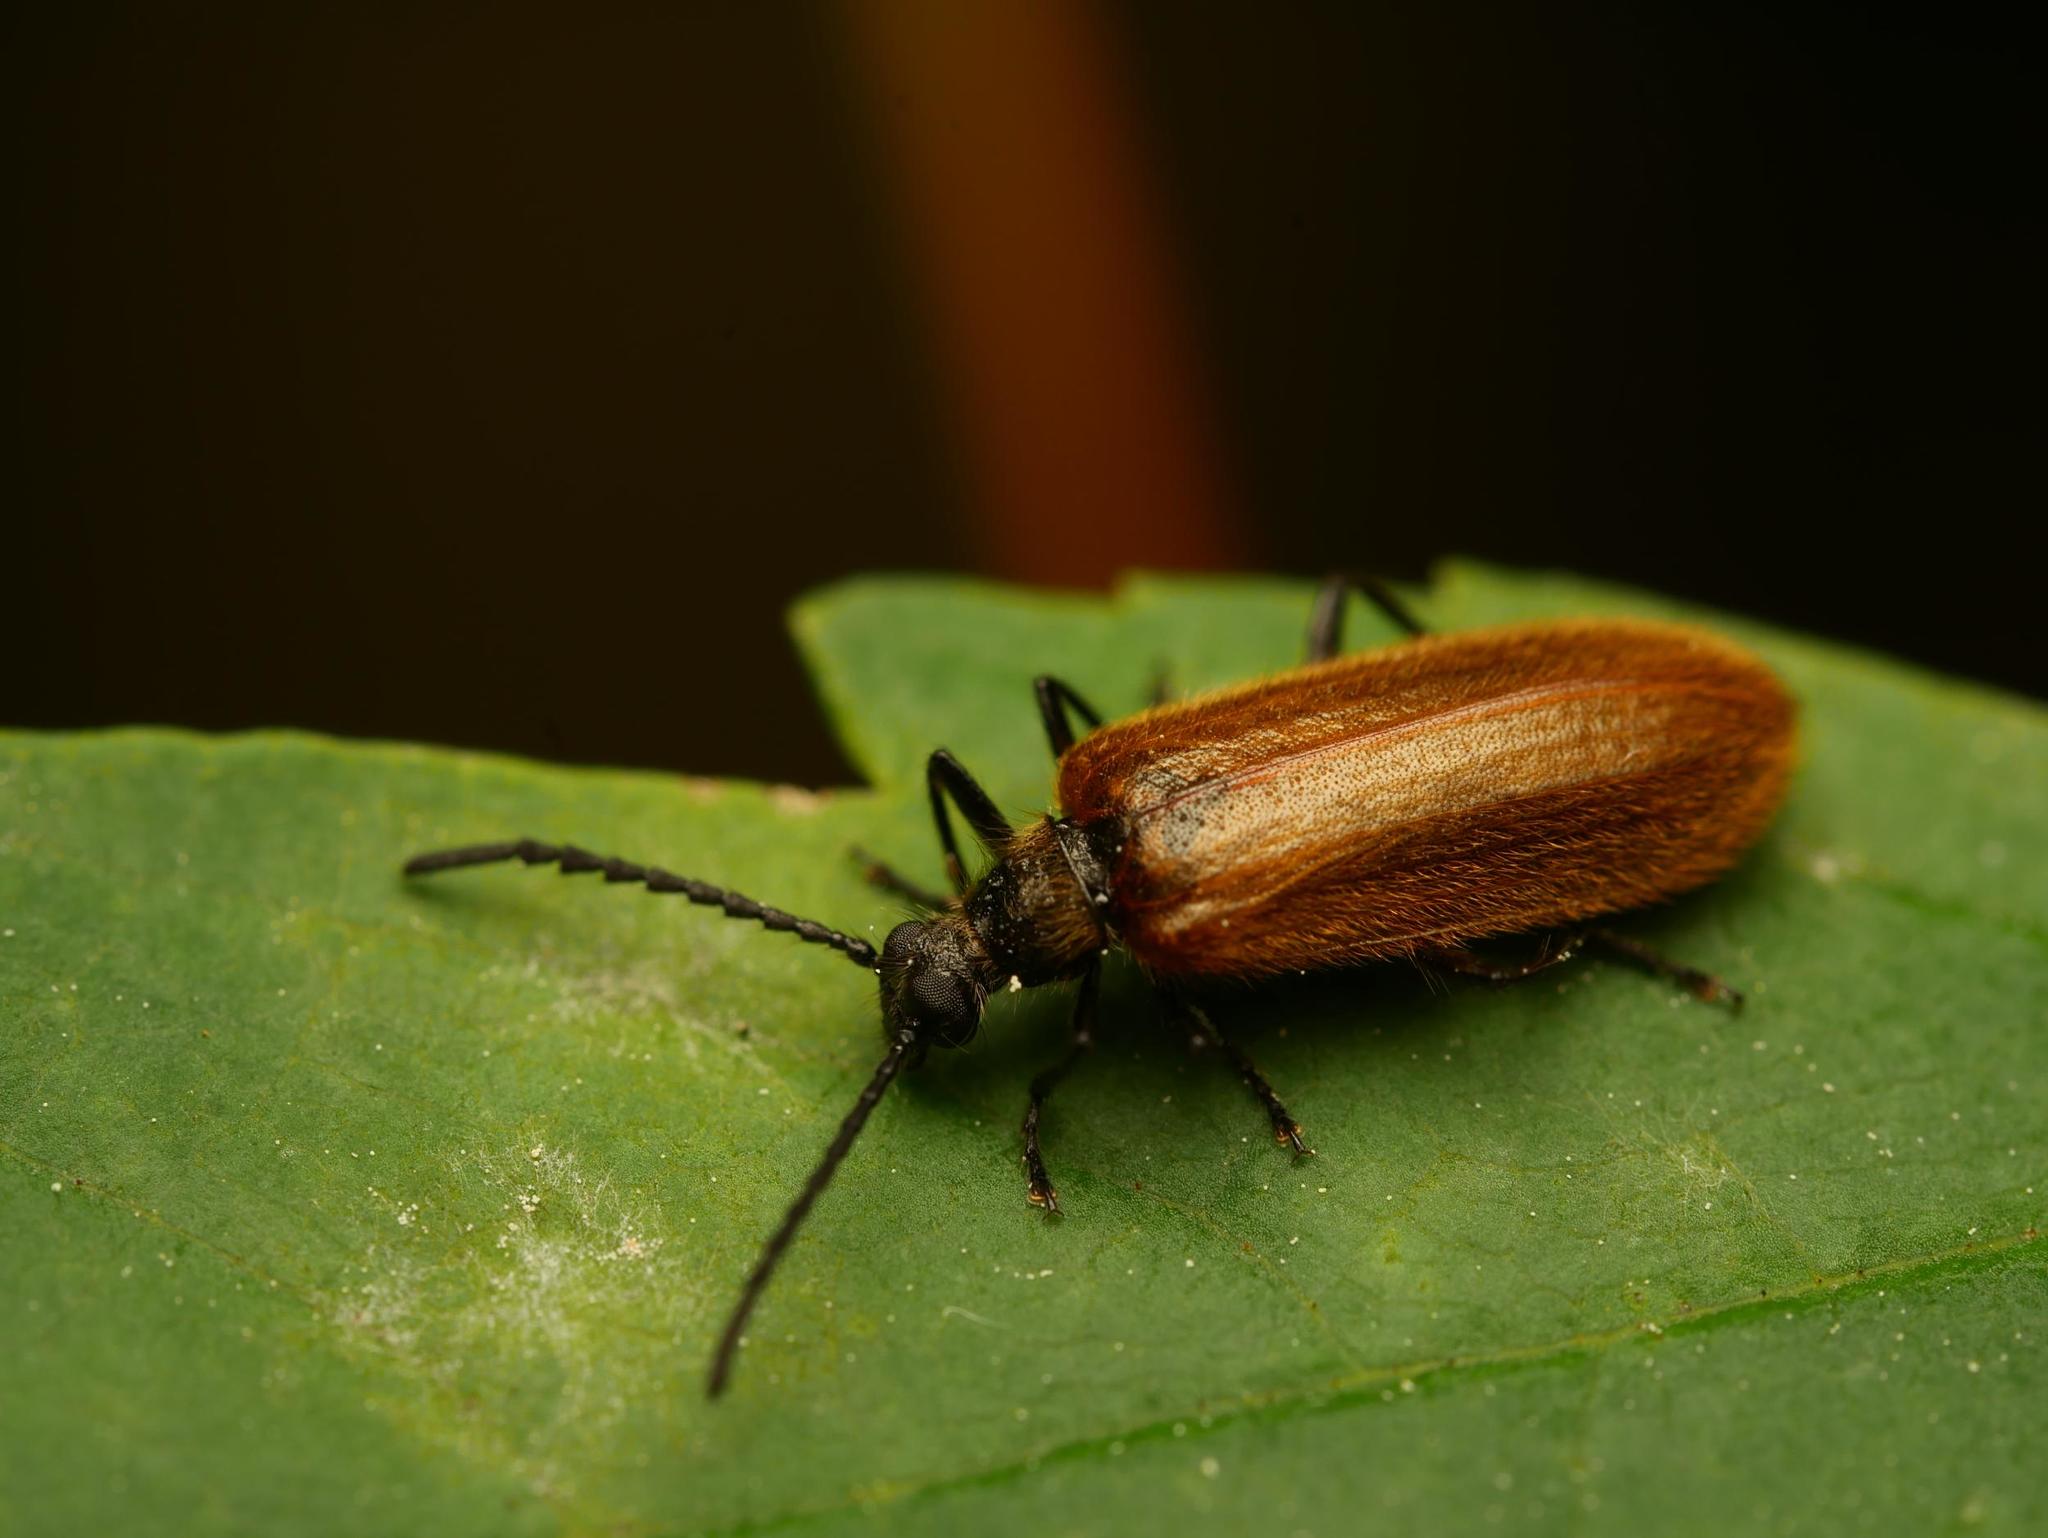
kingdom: Animalia
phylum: Arthropoda
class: Insecta
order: Coleoptera
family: Tenebrionidae
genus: Lagria
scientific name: Lagria atripes
